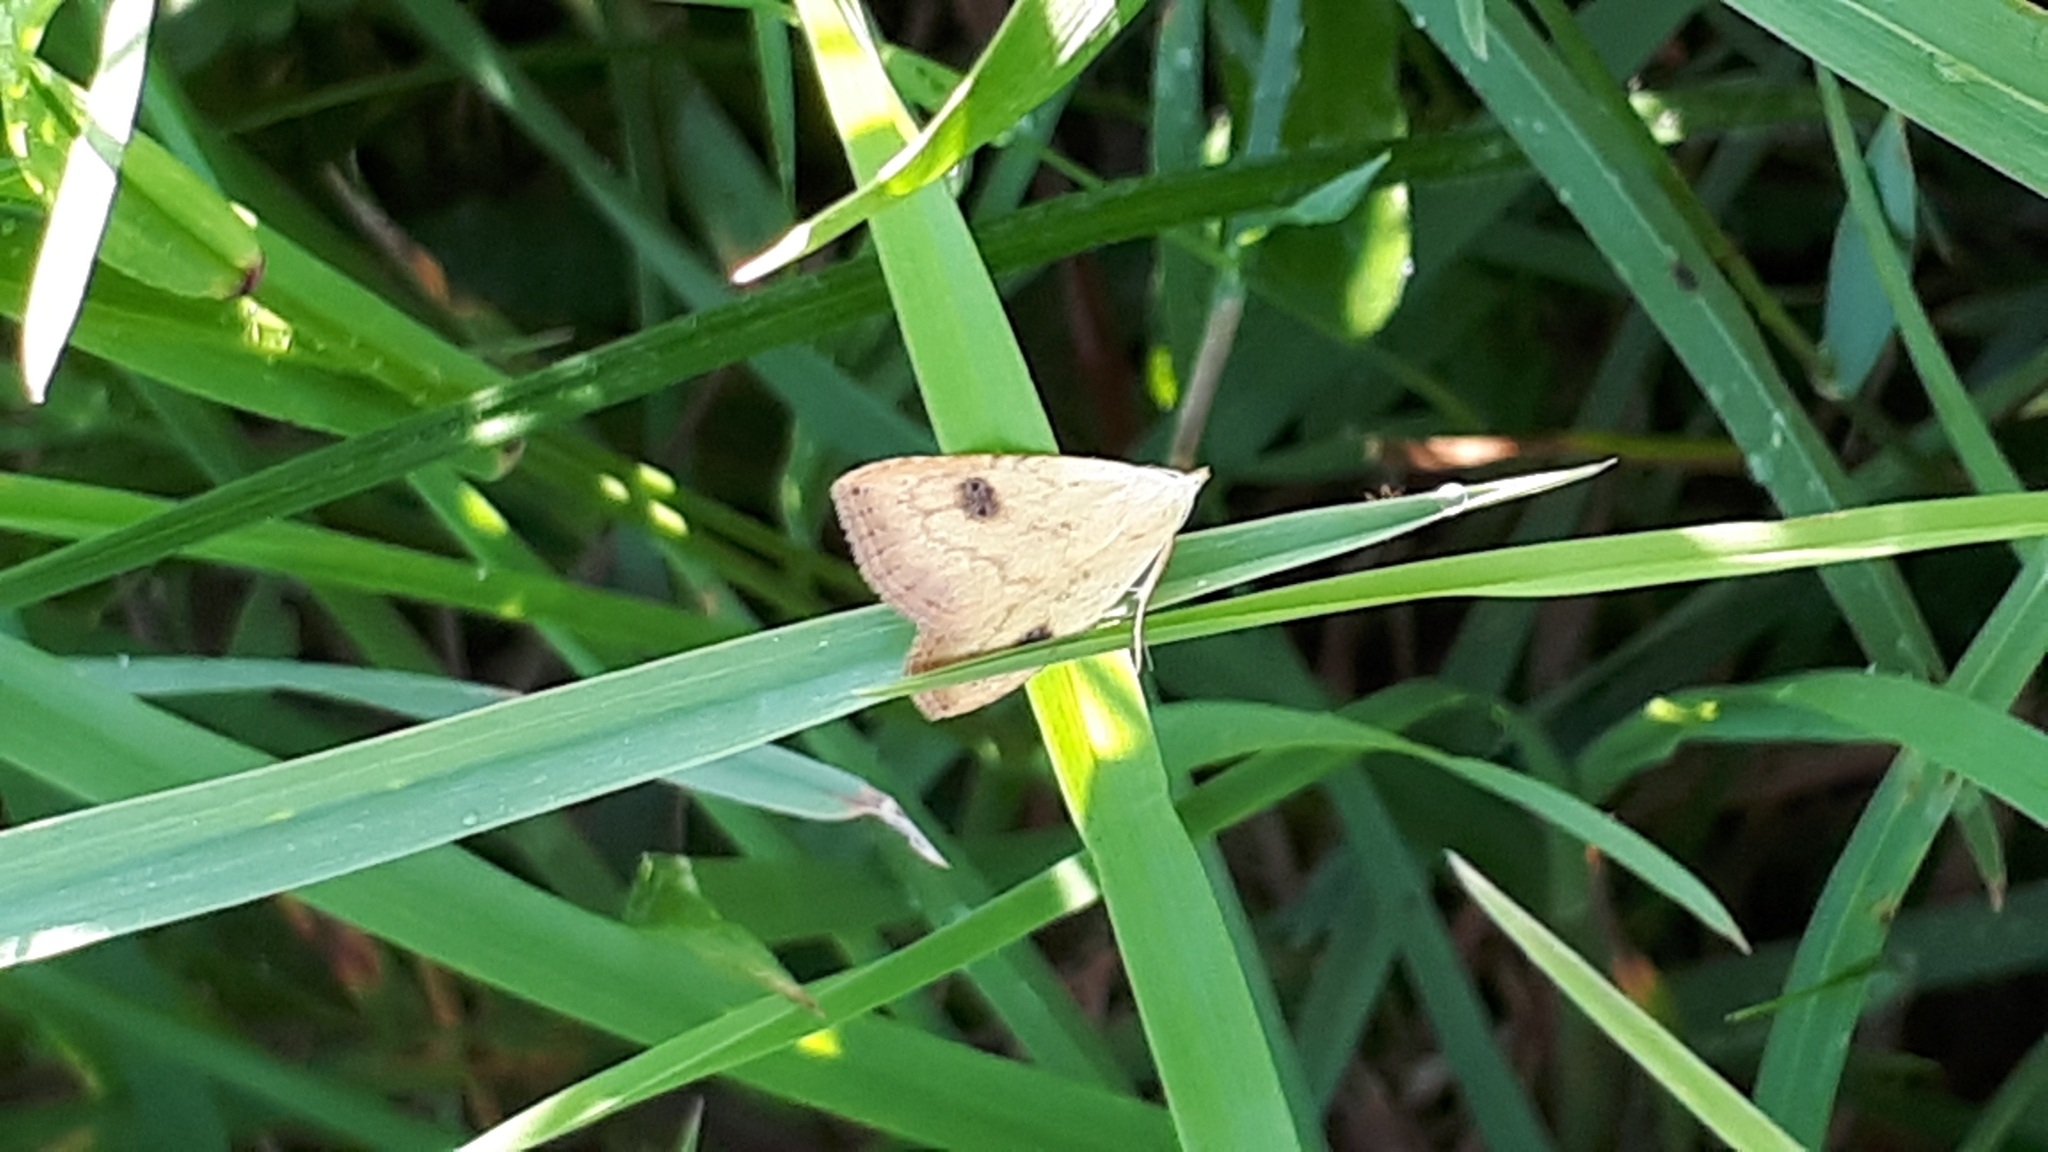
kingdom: Animalia
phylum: Arthropoda
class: Insecta
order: Lepidoptera
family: Erebidae
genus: Rivula
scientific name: Rivula sericealis
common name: Straw dot
